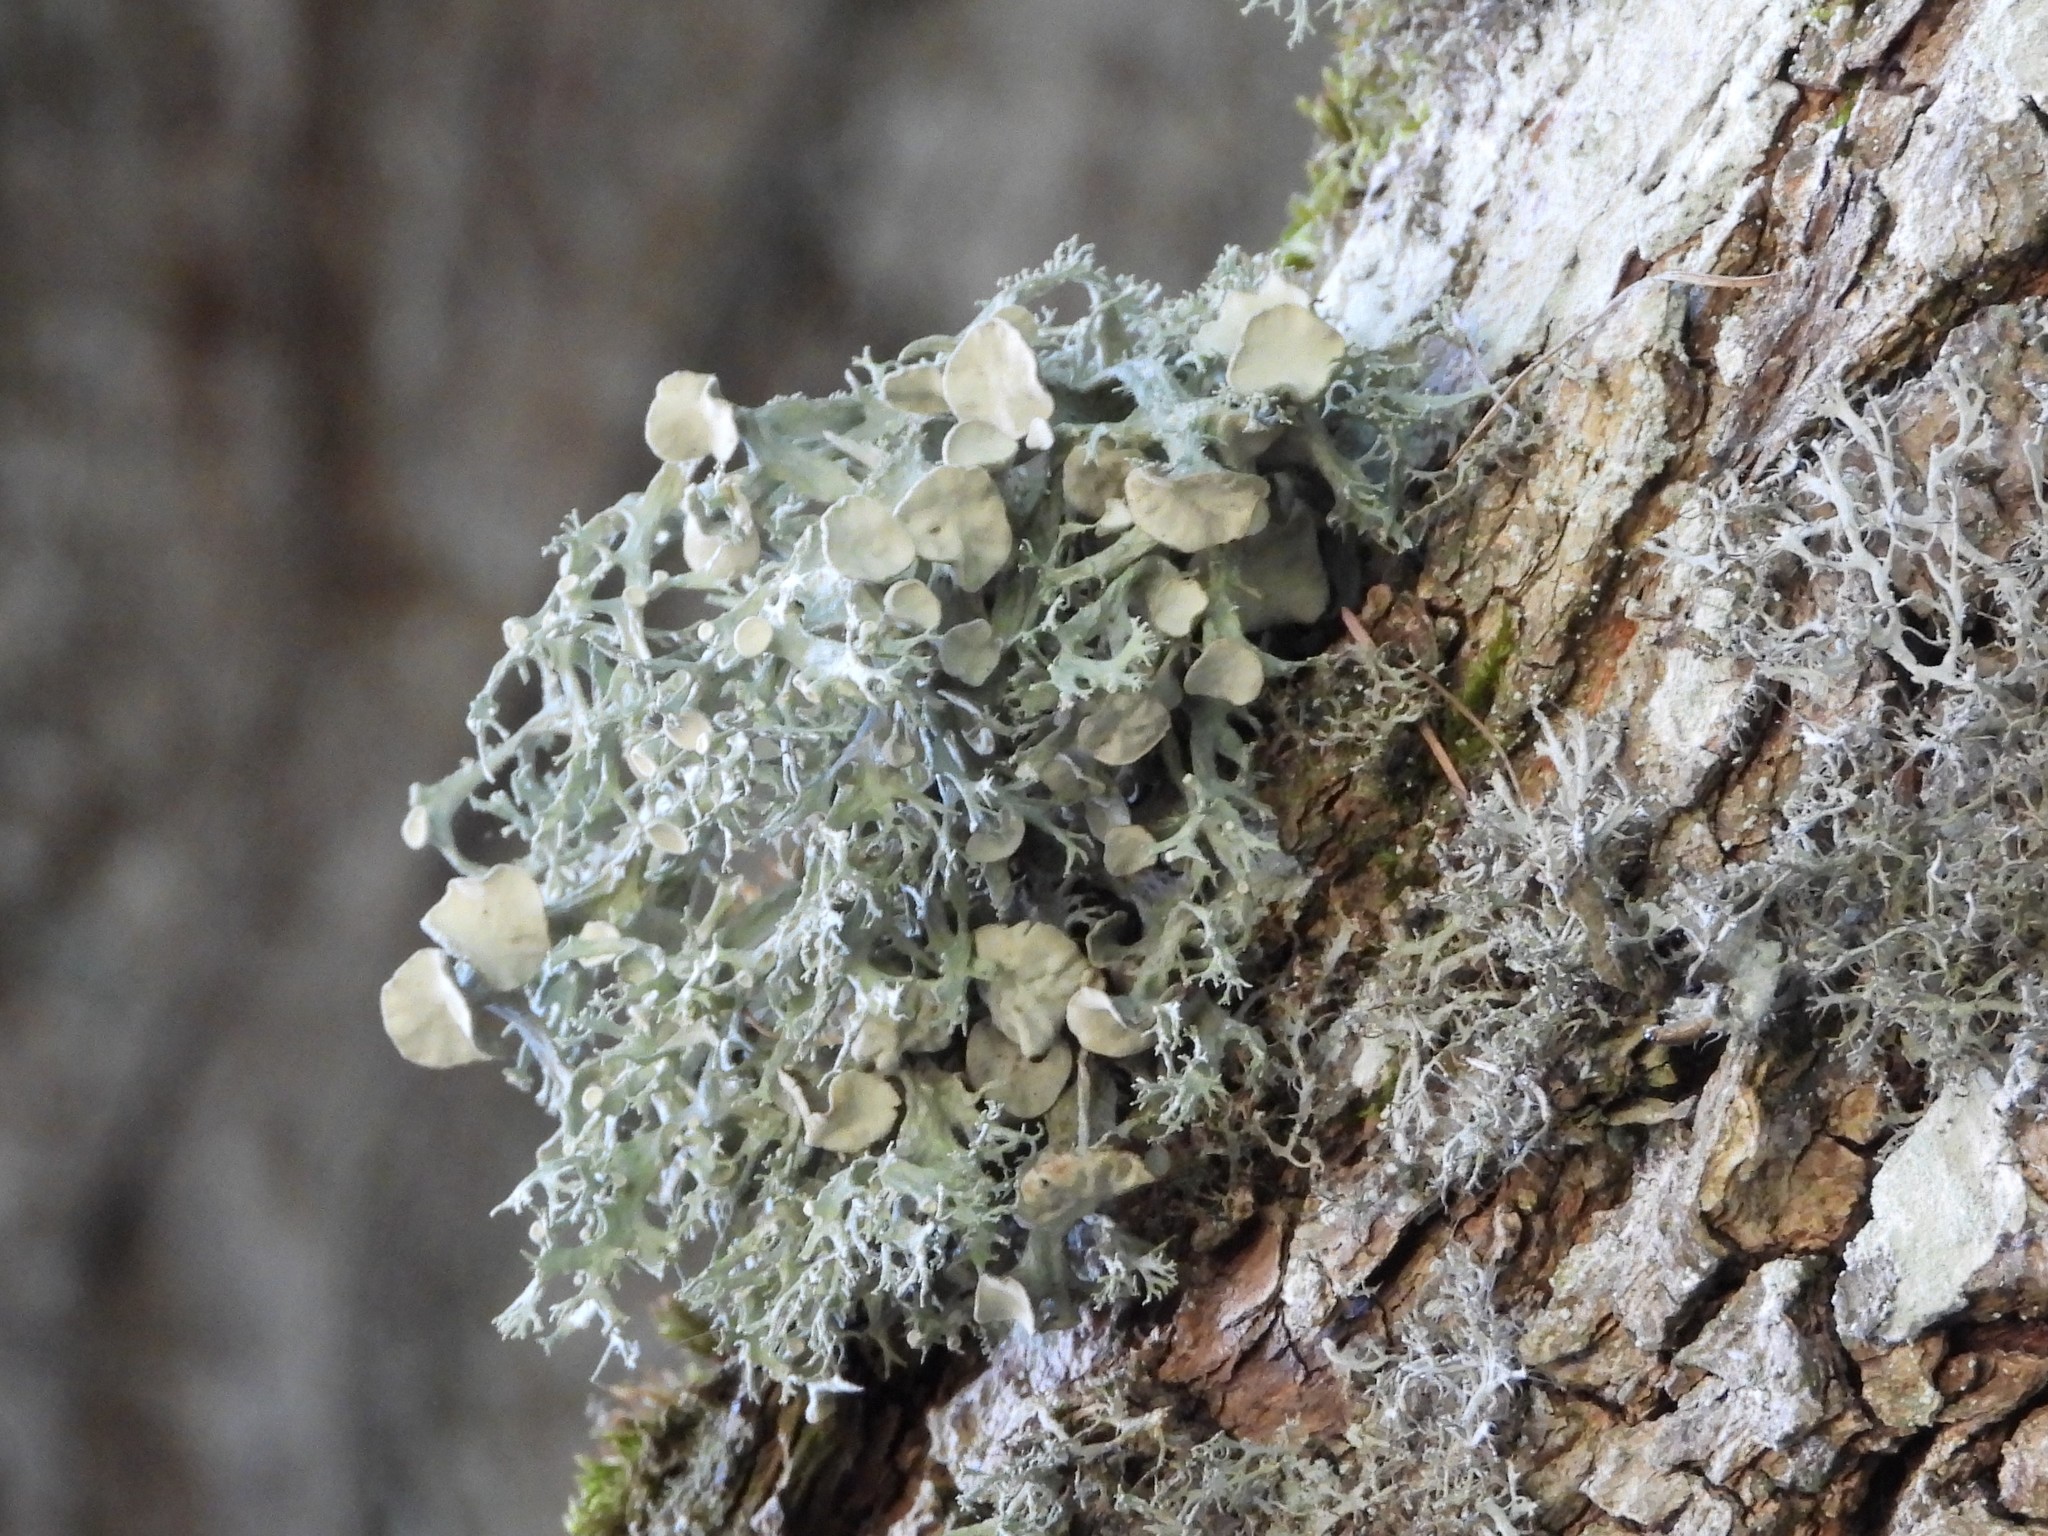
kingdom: Fungi
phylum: Ascomycota
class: Lecanoromycetes
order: Lecanorales
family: Ramalinaceae
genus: Ramalina
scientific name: Ramalina fastigiata
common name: Dotted ribbon lichen
